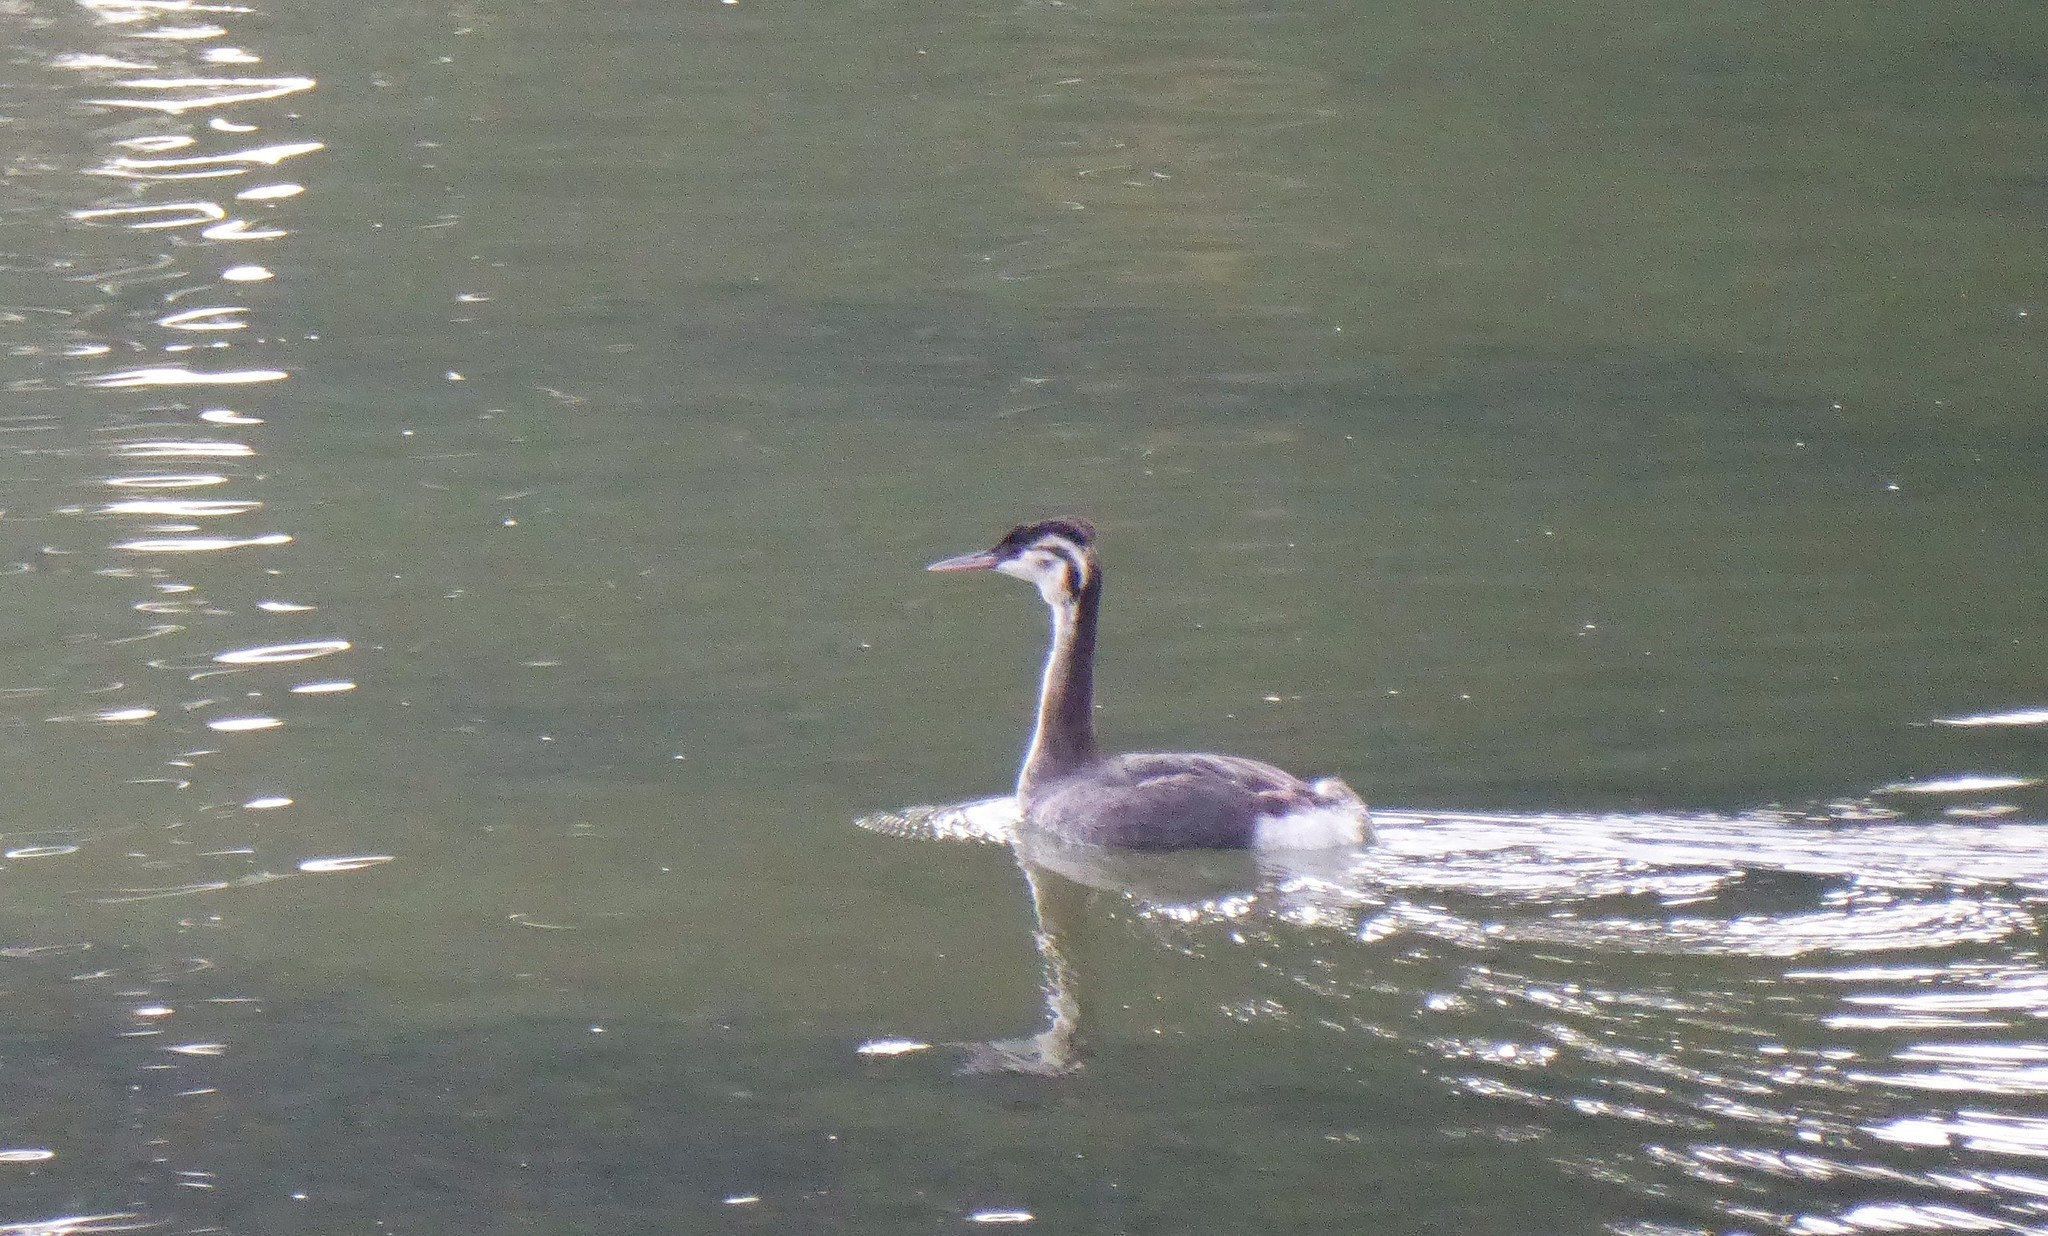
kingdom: Animalia
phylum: Chordata
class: Aves
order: Podicipediformes
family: Podicipedidae
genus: Podiceps
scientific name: Podiceps cristatus
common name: Great crested grebe
